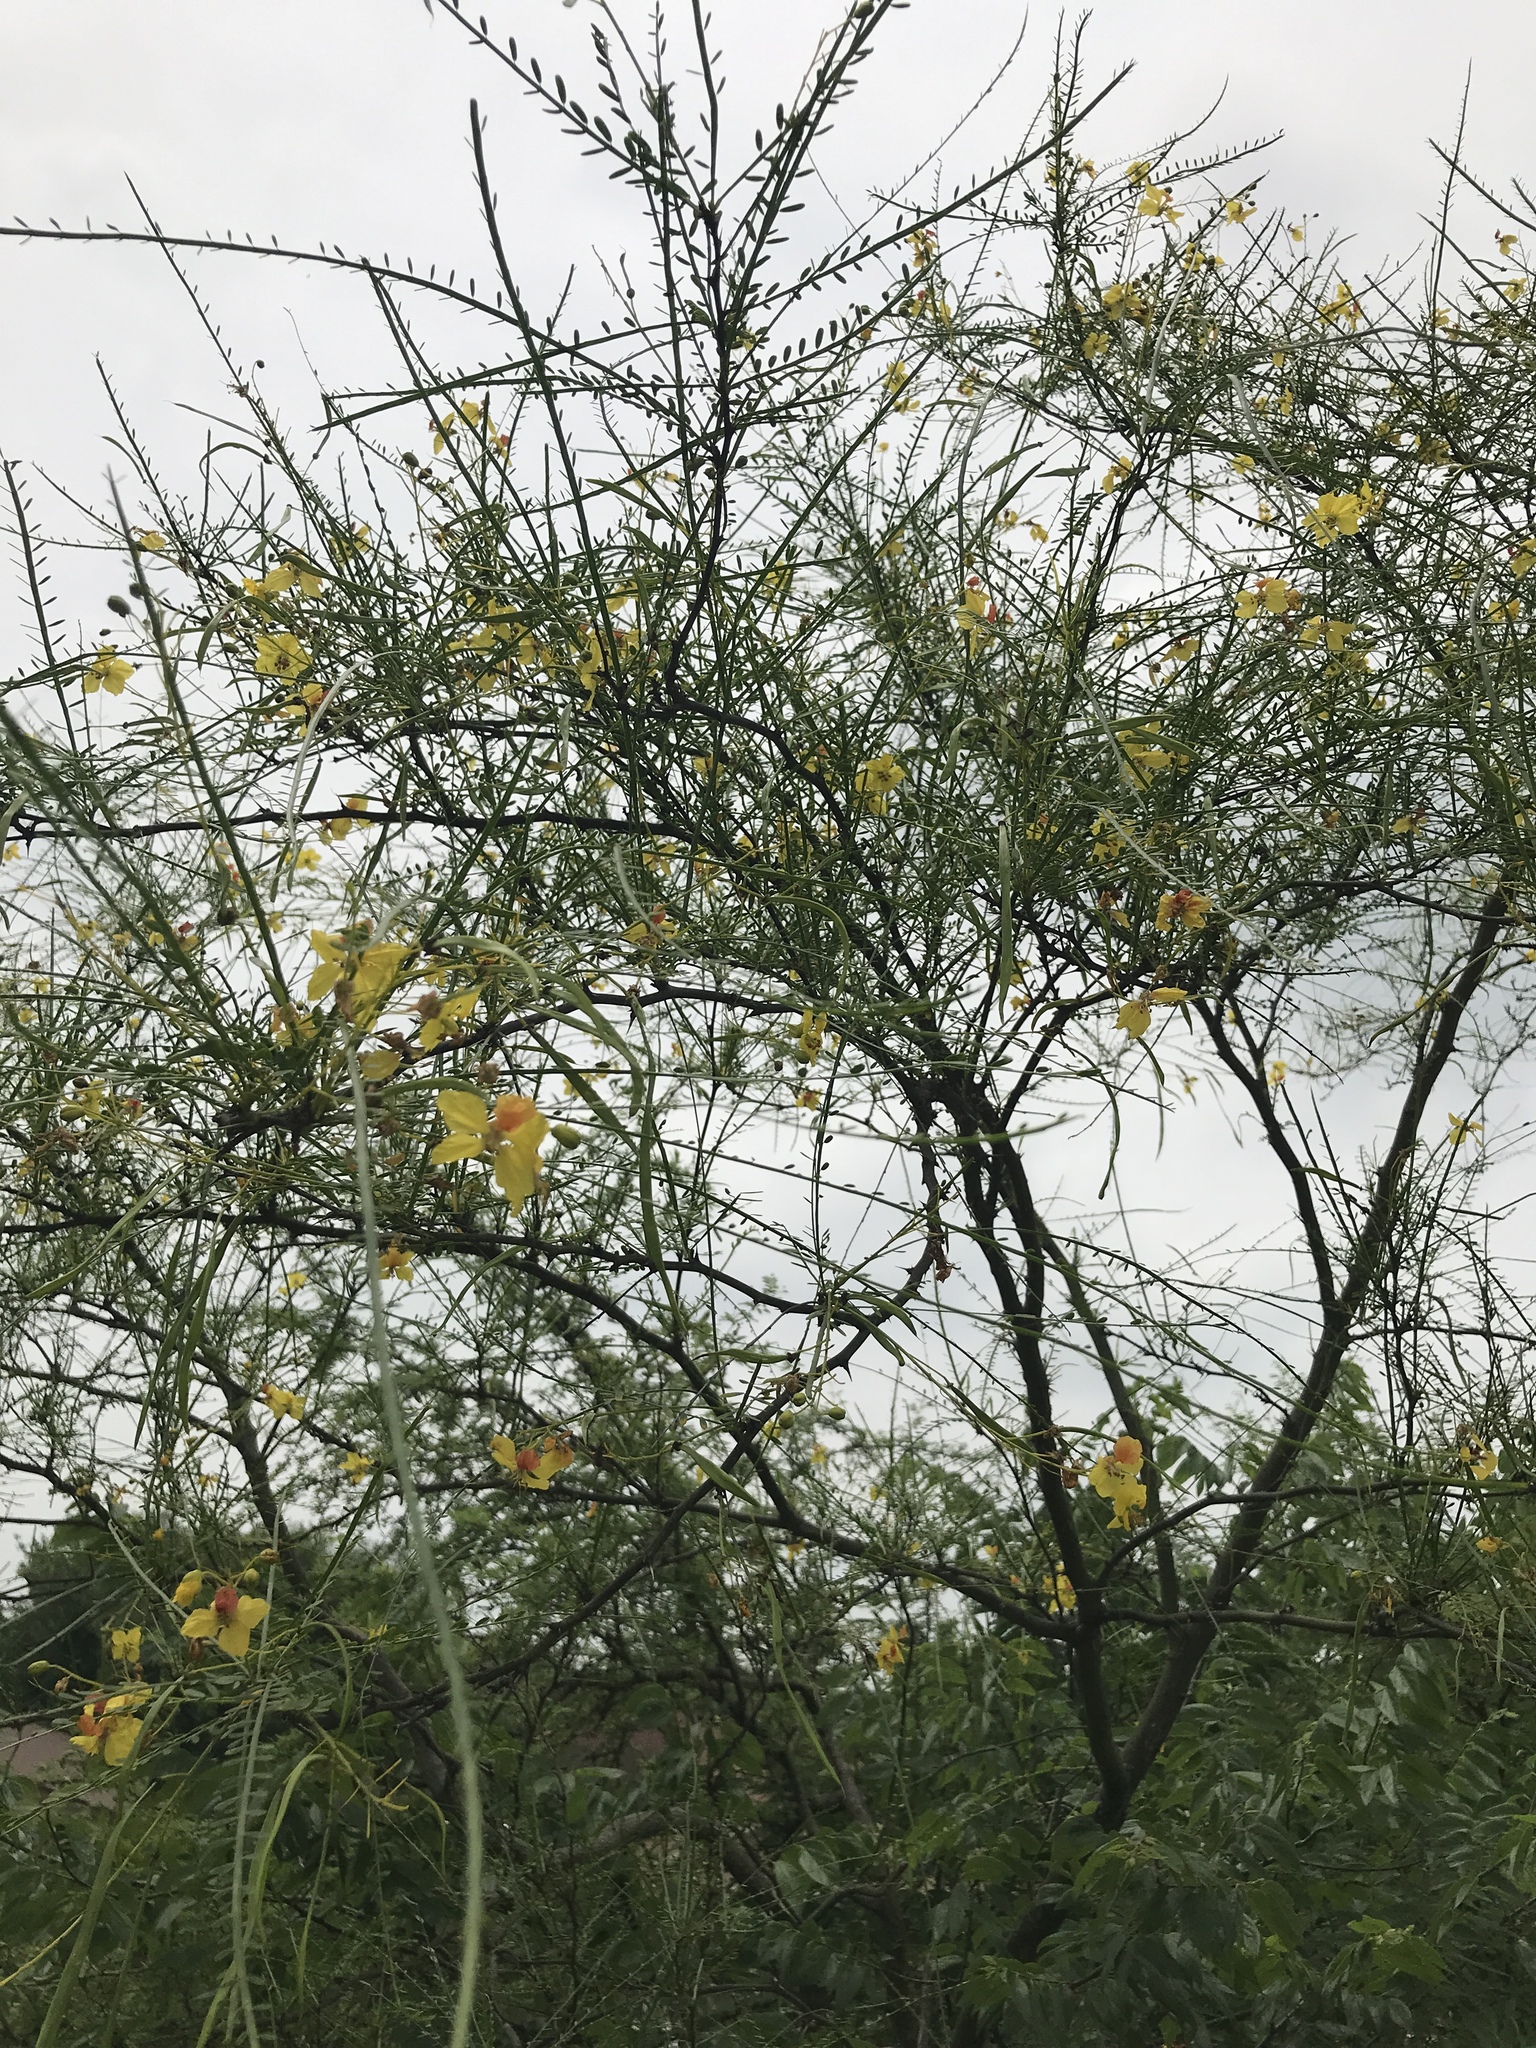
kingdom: Plantae
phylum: Tracheophyta
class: Magnoliopsida
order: Fabales
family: Fabaceae
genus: Parkinsonia
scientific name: Parkinsonia aculeata
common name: Jerusalem thorn
